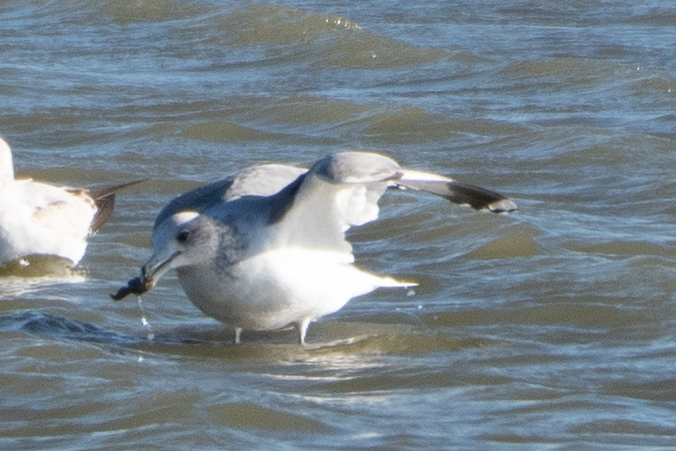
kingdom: Animalia
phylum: Chordata
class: Aves
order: Charadriiformes
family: Laridae
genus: Larus
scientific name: Larus californicus
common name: California gull
